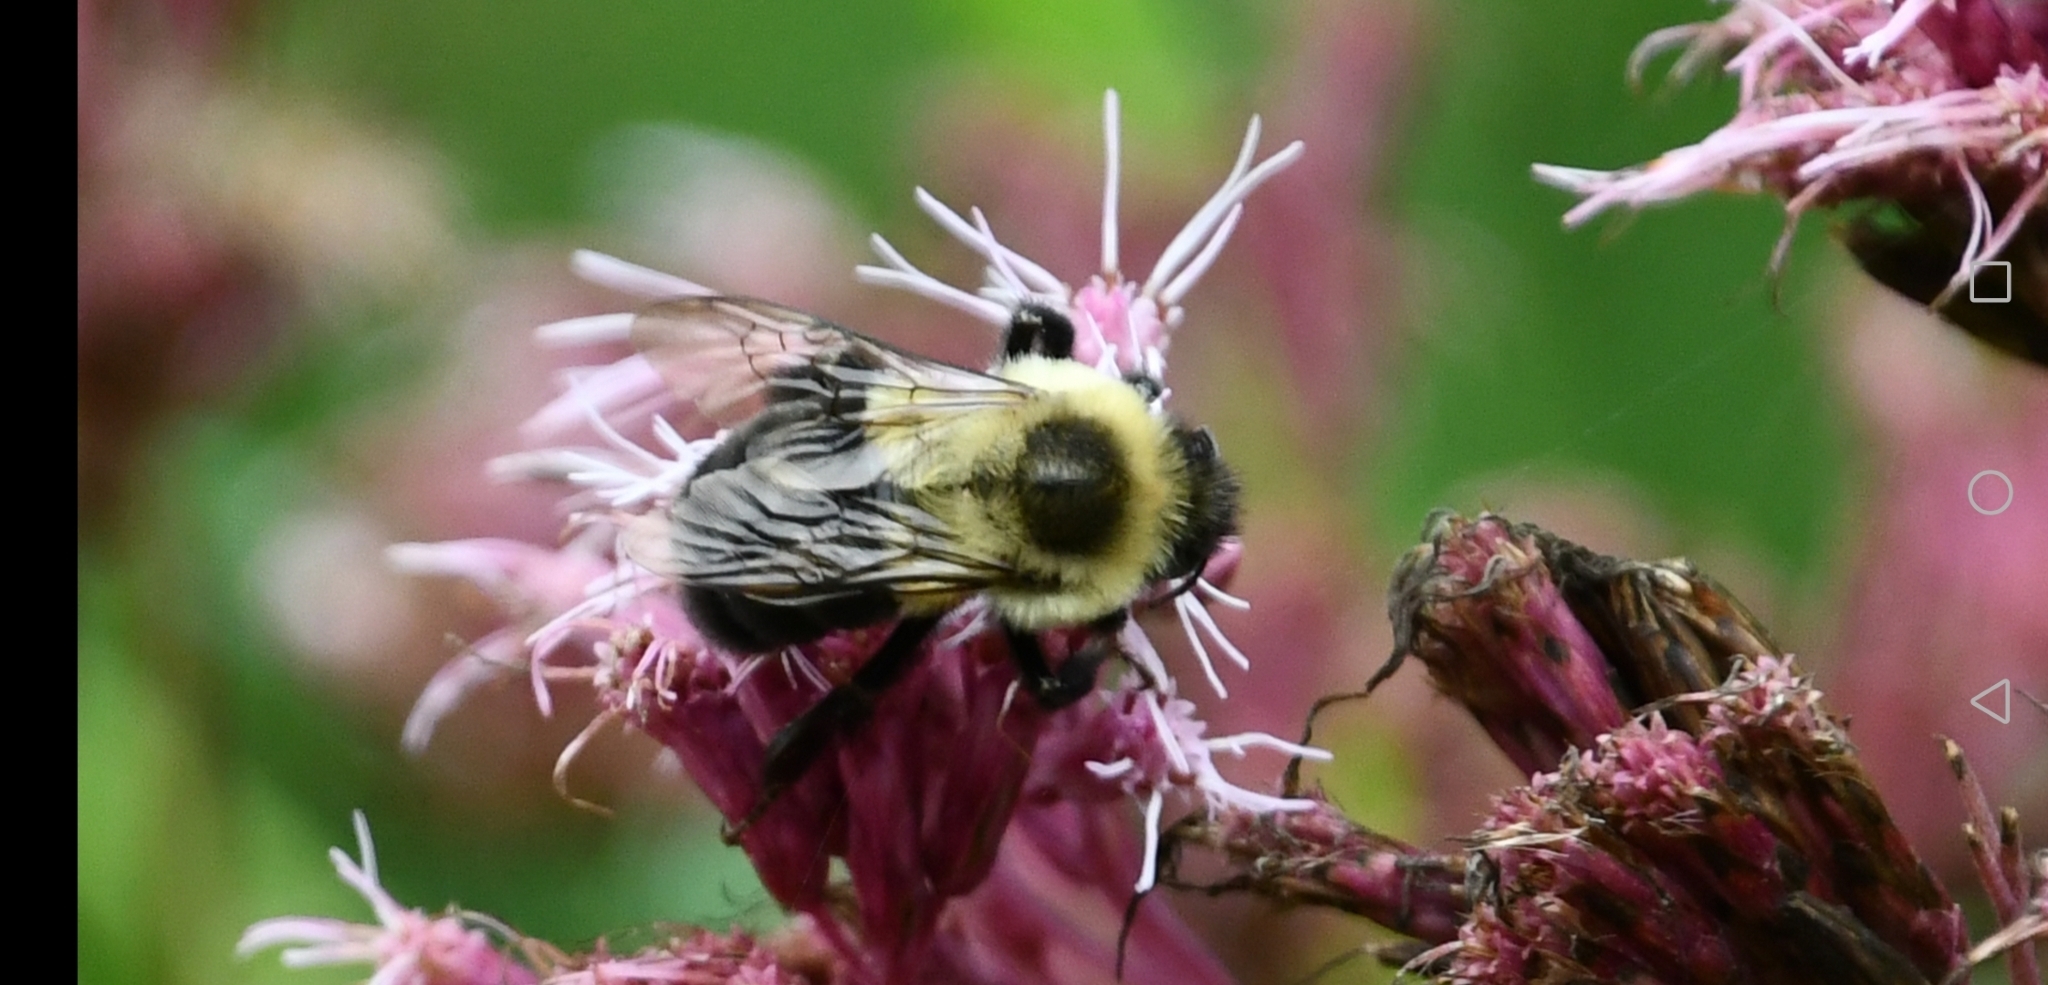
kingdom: Animalia
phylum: Arthropoda
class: Insecta
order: Hymenoptera
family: Apidae
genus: Bombus
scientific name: Bombus impatiens
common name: Common eastern bumble bee
